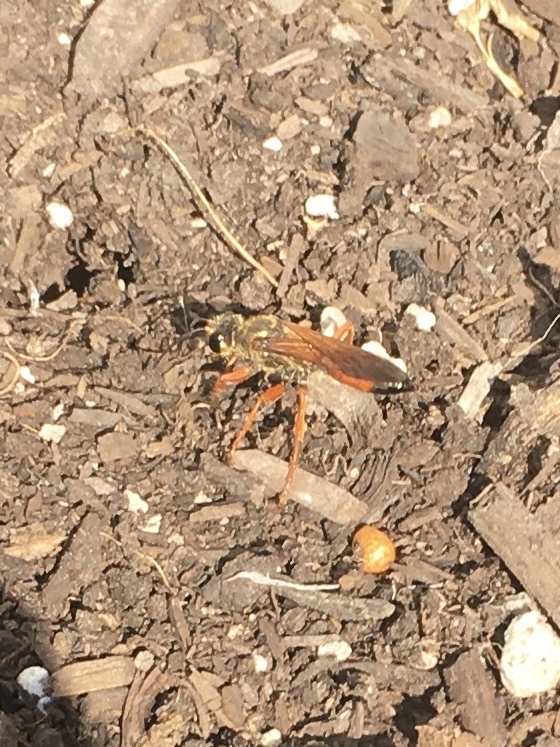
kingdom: Animalia
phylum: Arthropoda
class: Insecta
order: Hymenoptera
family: Sphecidae
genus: Sphex
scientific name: Sphex ichneumoneus
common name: Great golden digger wasp
